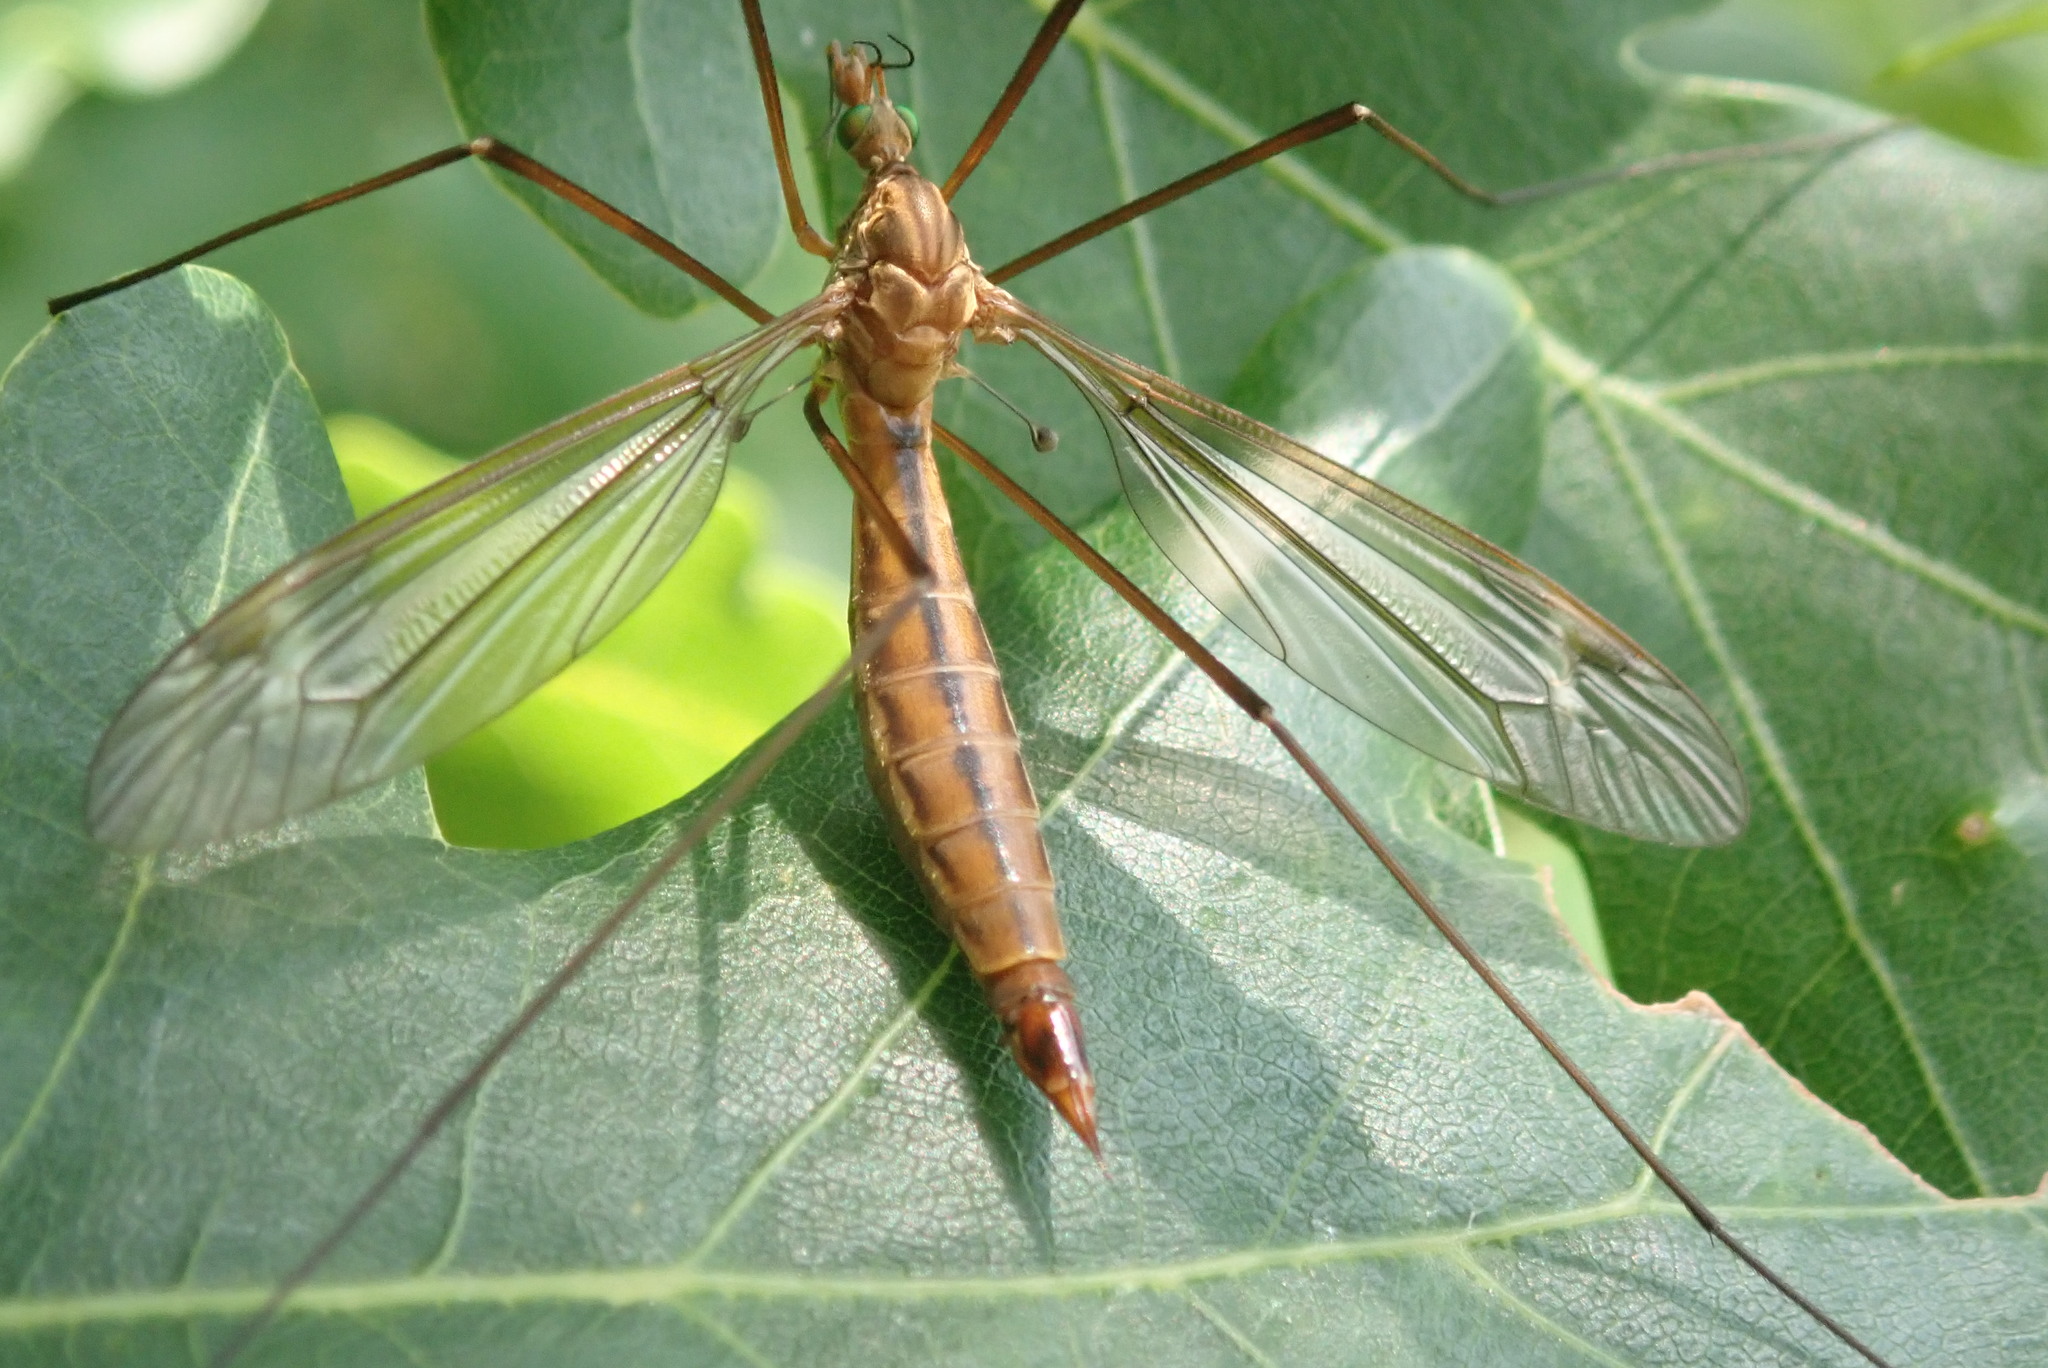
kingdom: Animalia
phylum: Arthropoda
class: Insecta
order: Diptera
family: Tipulidae
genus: Tipula
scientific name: Tipula cava
